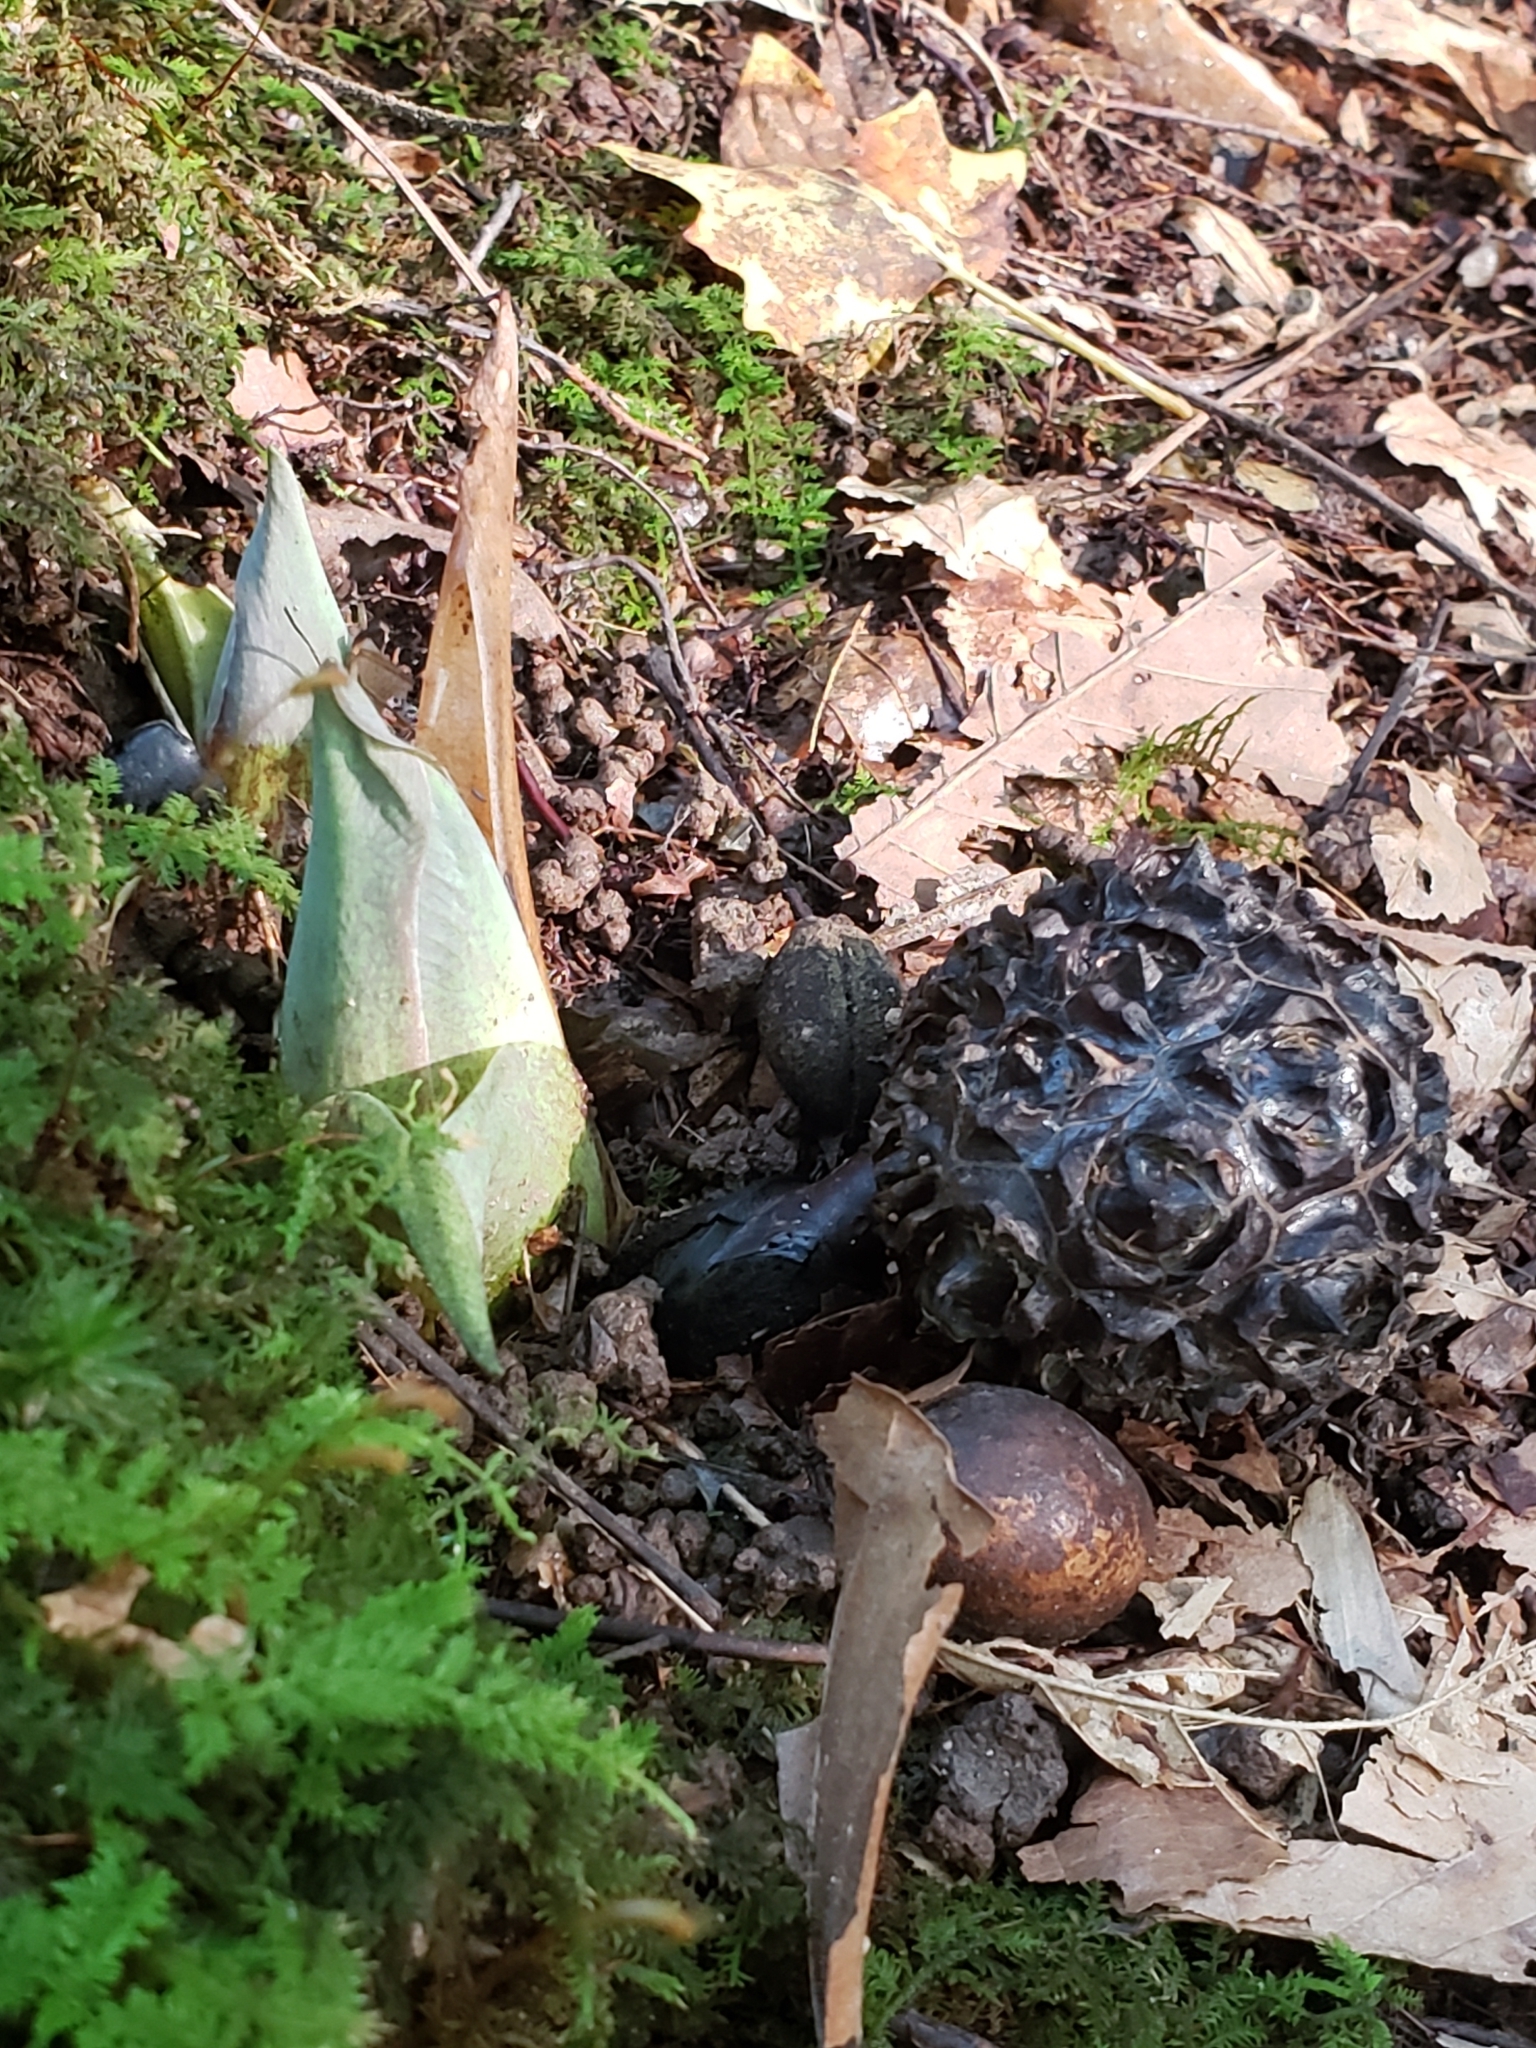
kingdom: Plantae
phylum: Tracheophyta
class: Liliopsida
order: Alismatales
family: Araceae
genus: Symplocarpus
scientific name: Symplocarpus foetidus
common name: Eastern skunk cabbage
